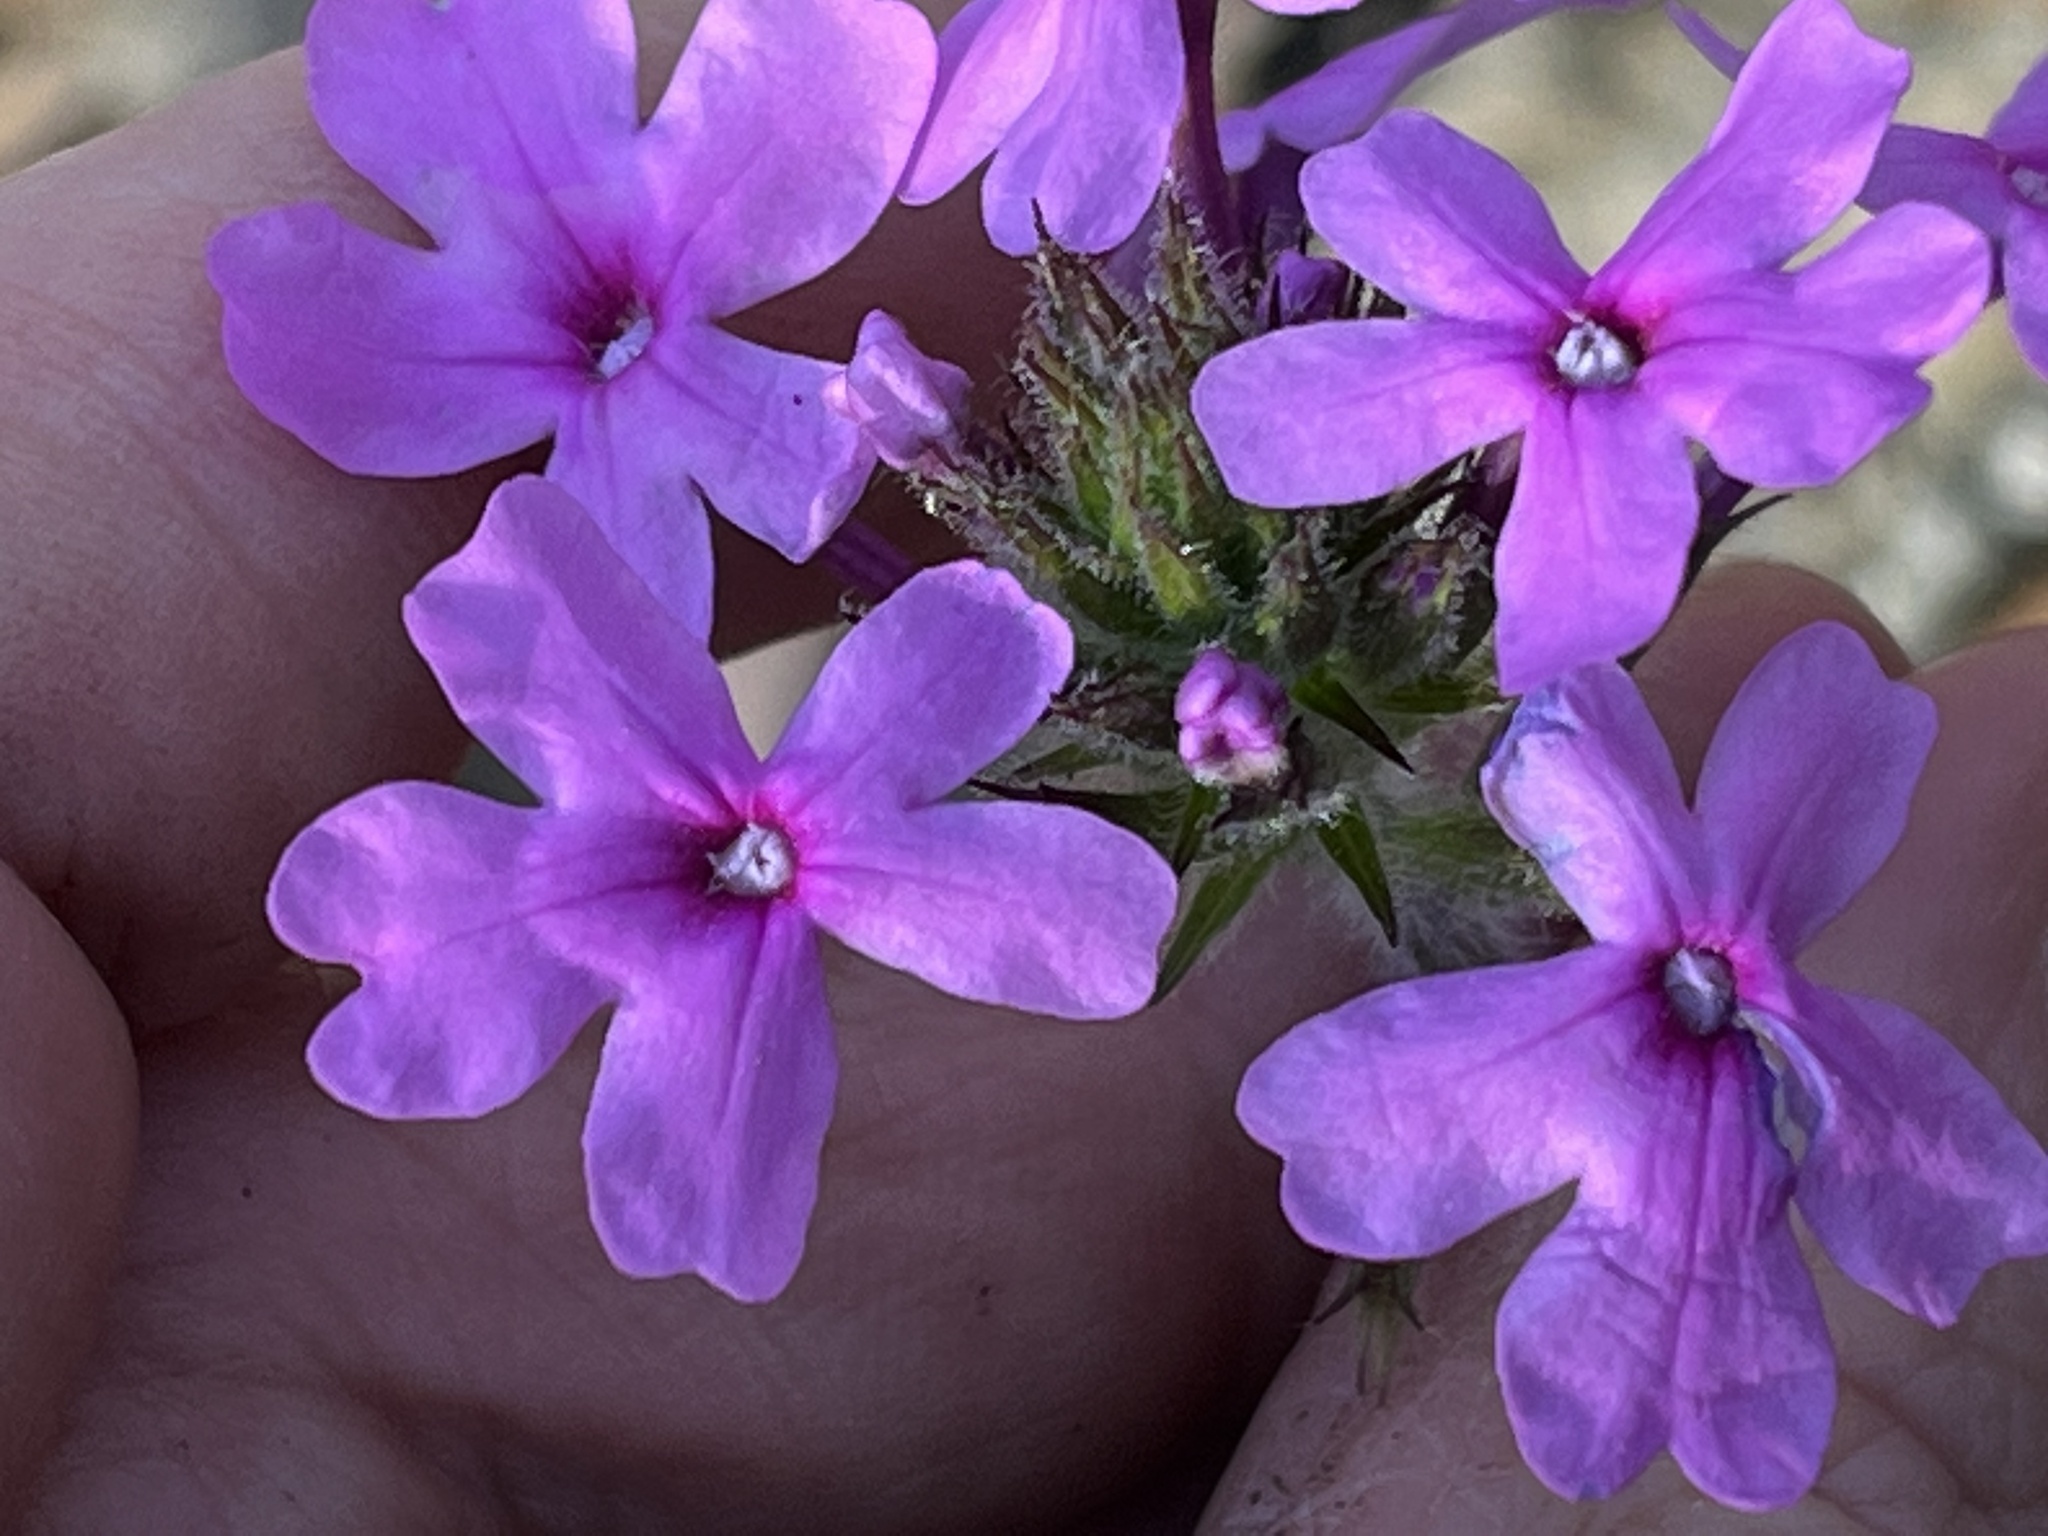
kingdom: Plantae
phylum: Tracheophyta
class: Magnoliopsida
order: Lamiales
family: Verbenaceae
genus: Verbena
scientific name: Verbena canadensis
